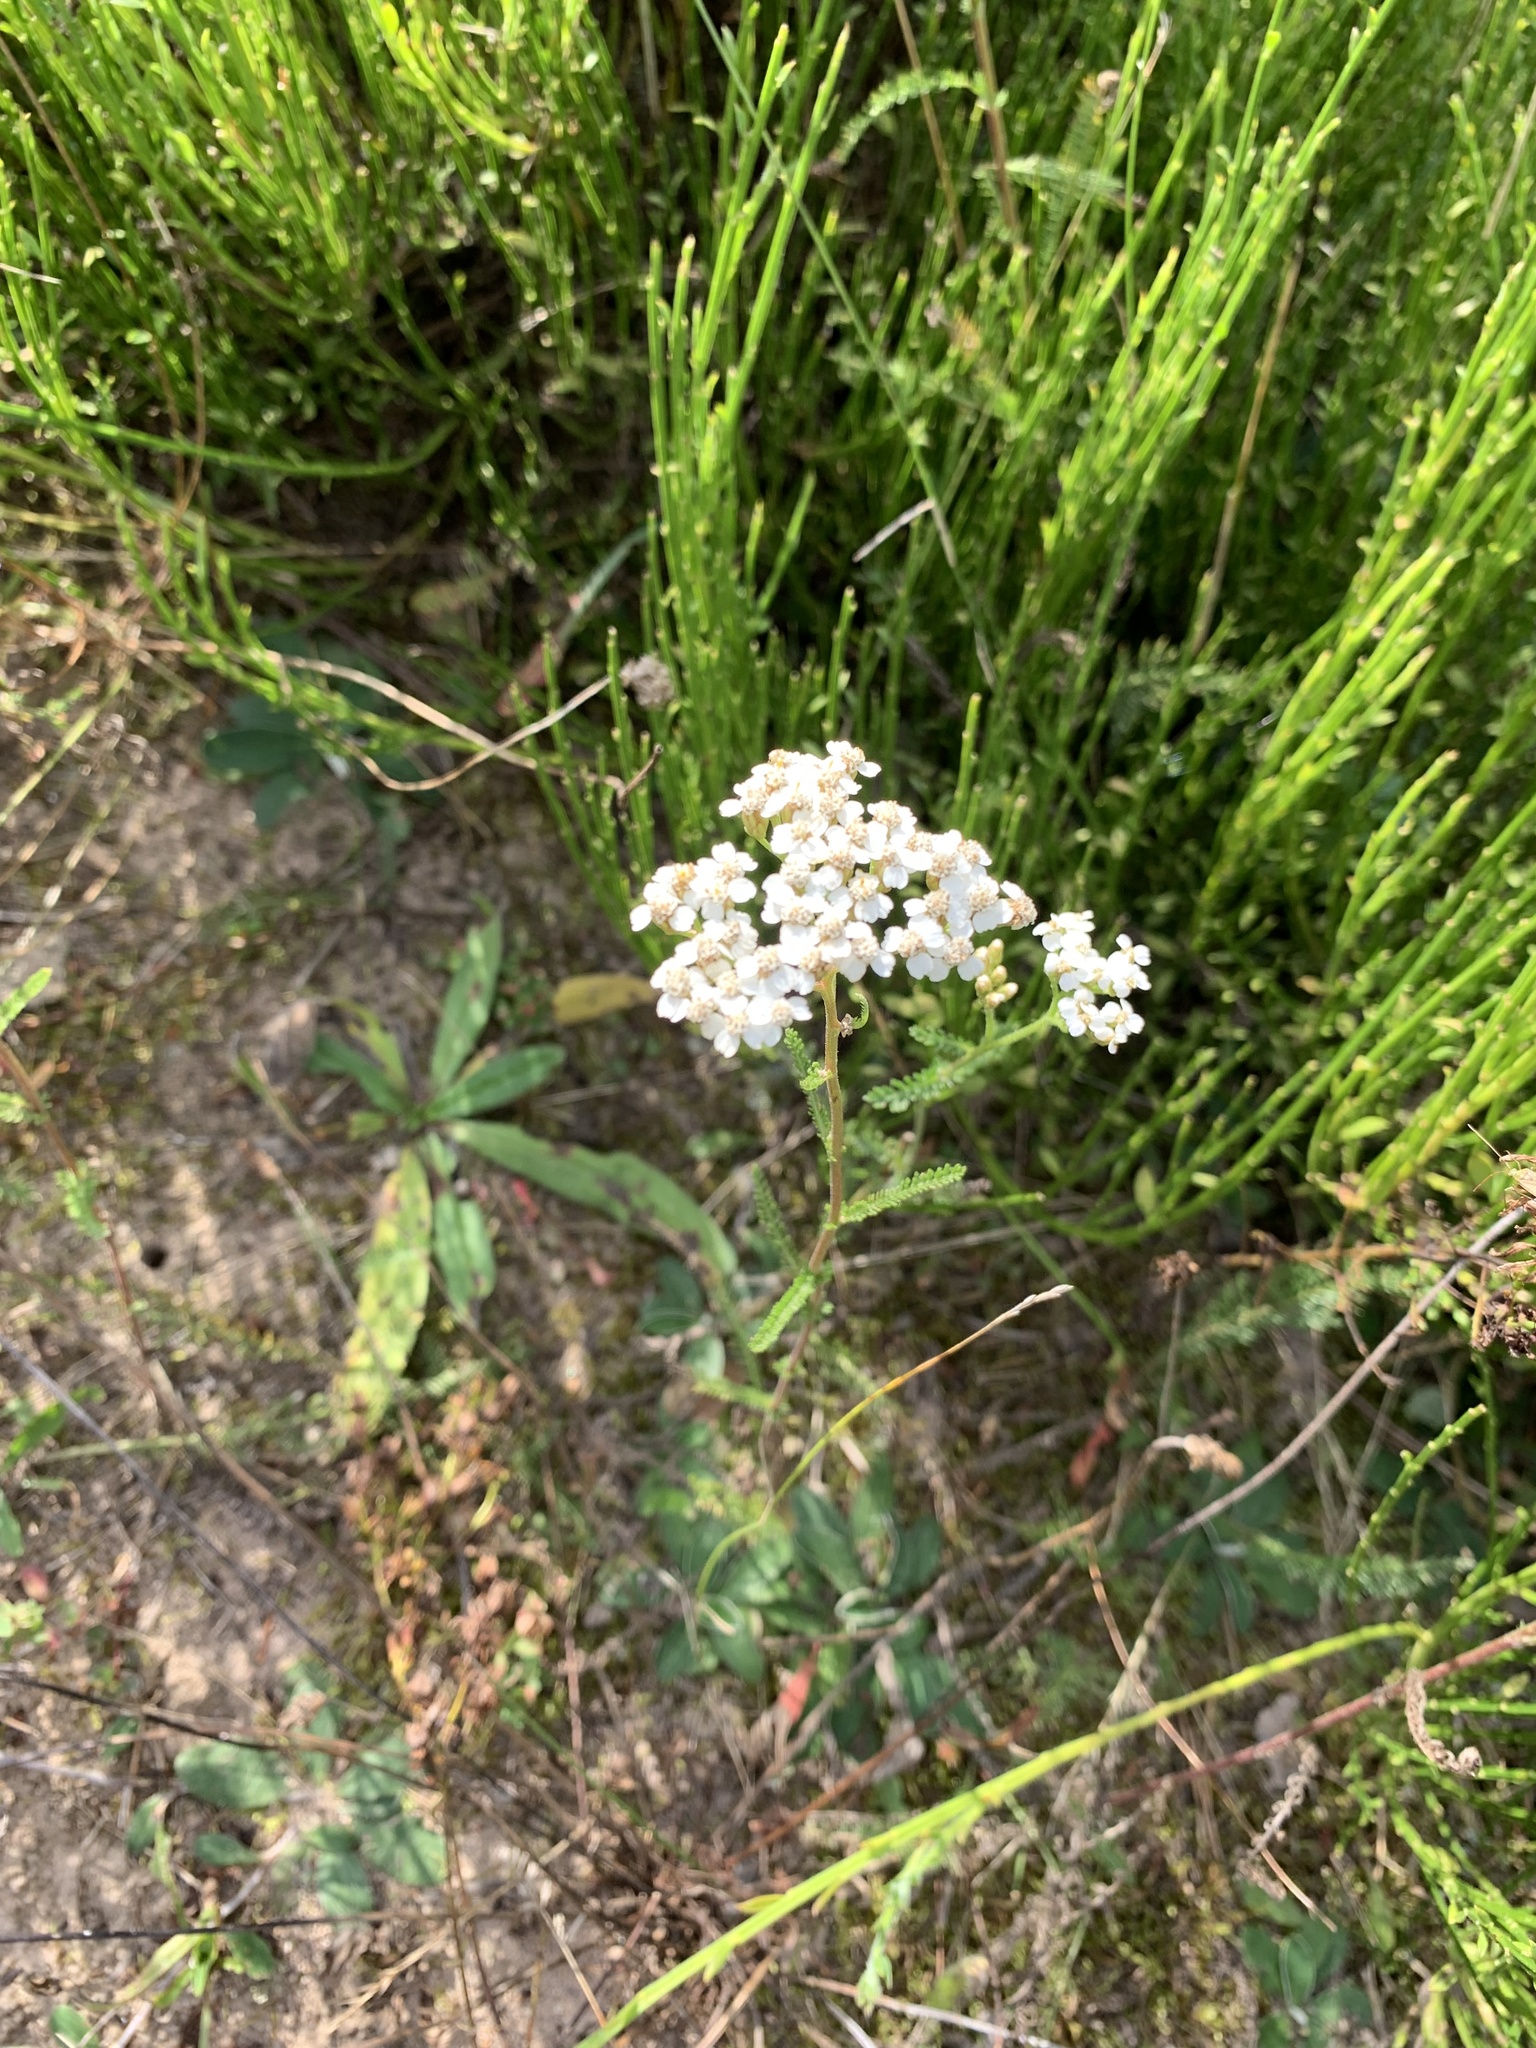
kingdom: Plantae
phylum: Tracheophyta
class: Magnoliopsida
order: Asterales
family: Asteraceae
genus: Achillea
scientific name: Achillea millefolium
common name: Yarrow
